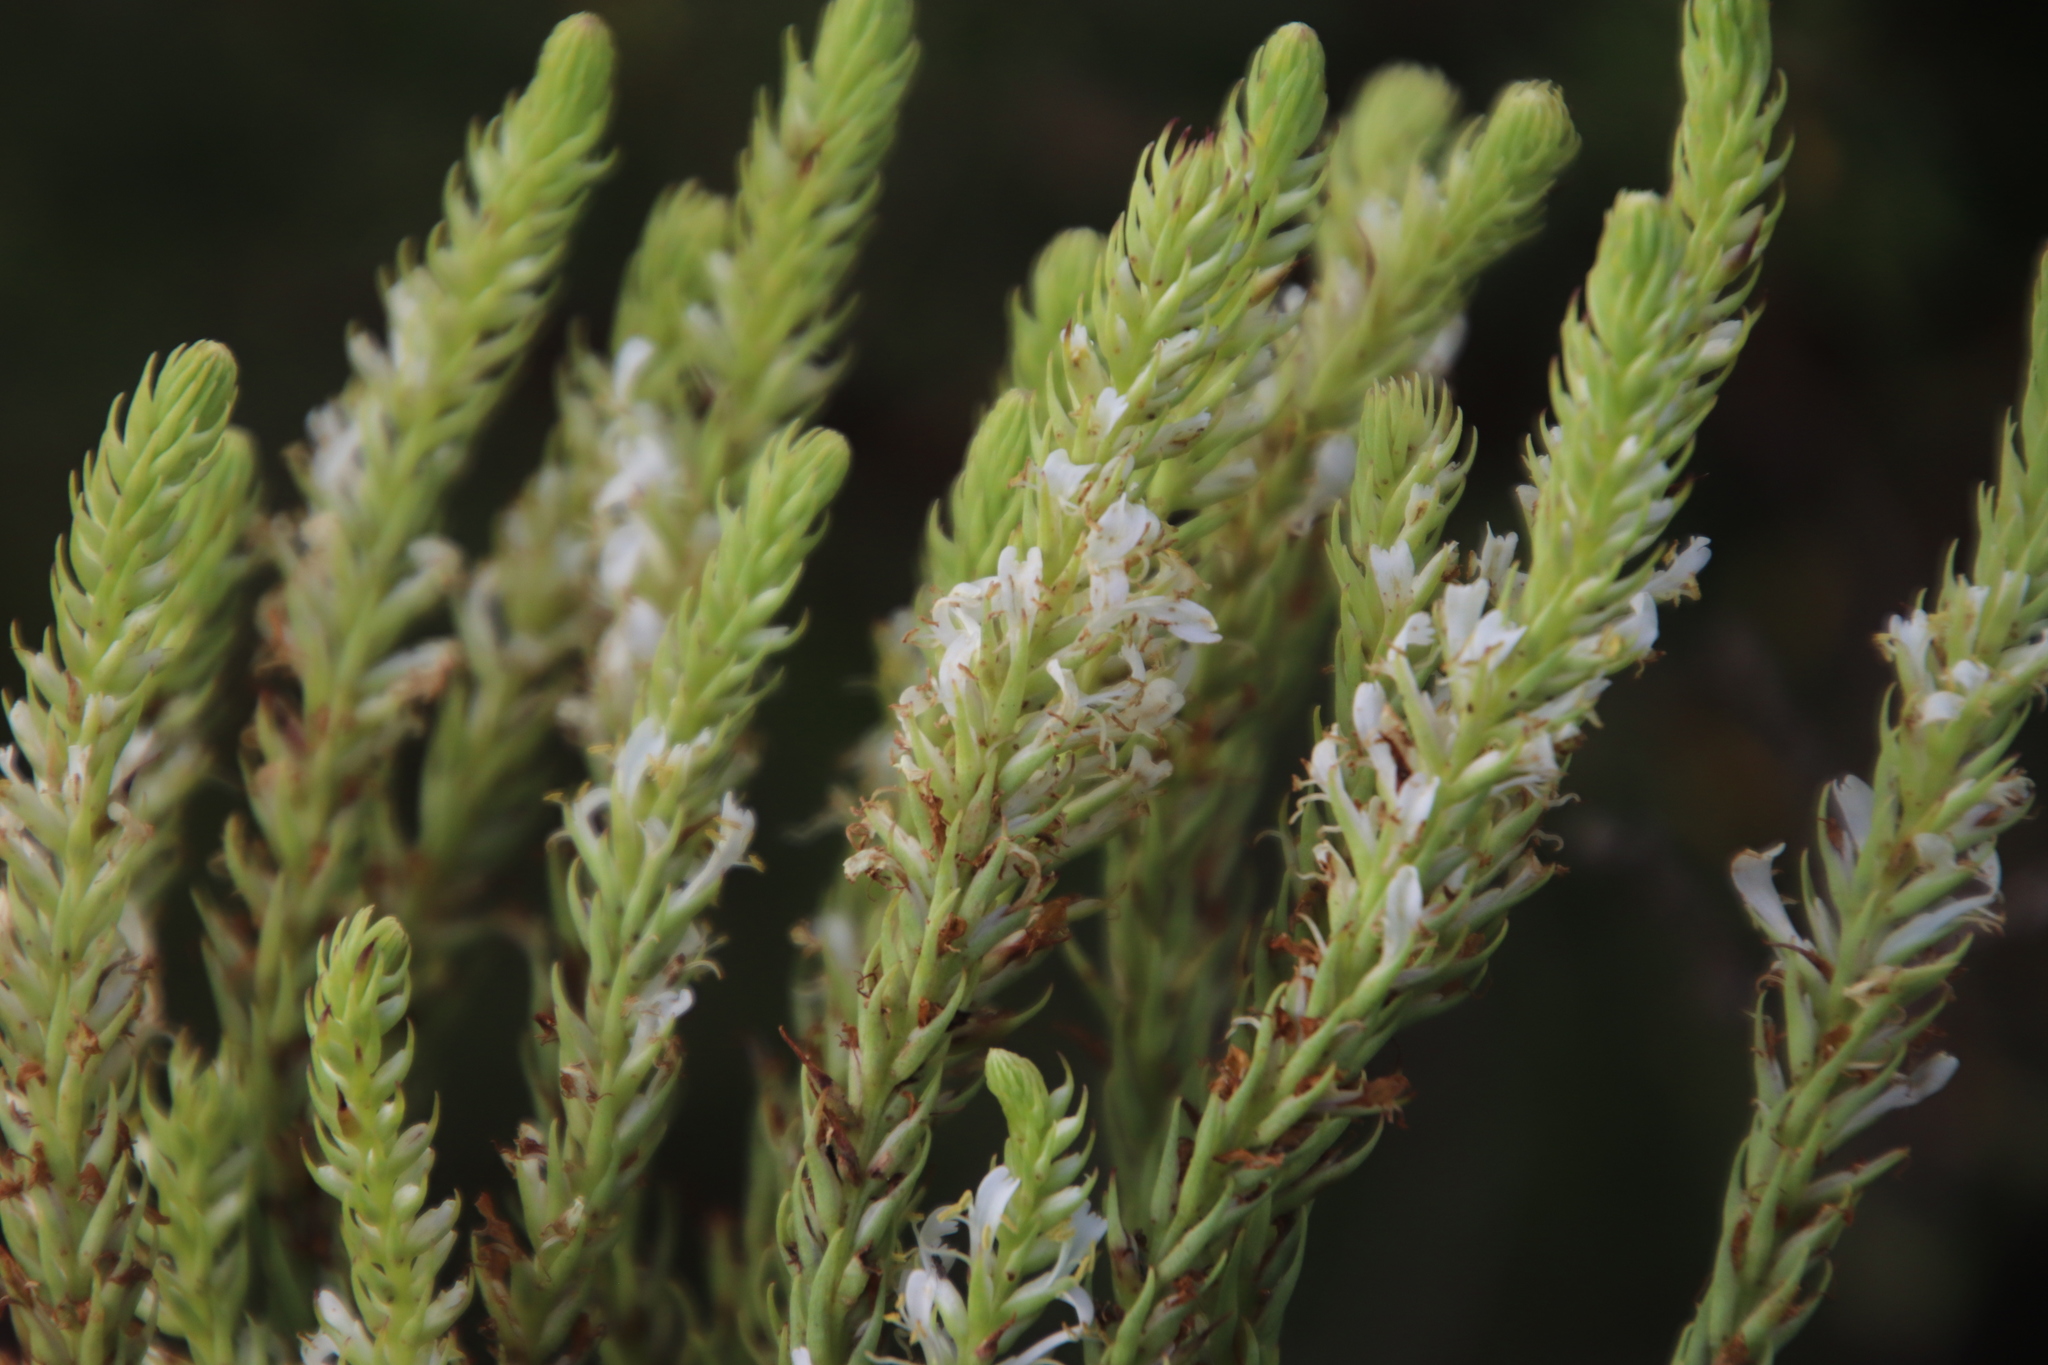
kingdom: Plantae
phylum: Tracheophyta
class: Magnoliopsida
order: Lamiales
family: Scrophulariaceae
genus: Hebenstretia
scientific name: Hebenstretia oatesii
